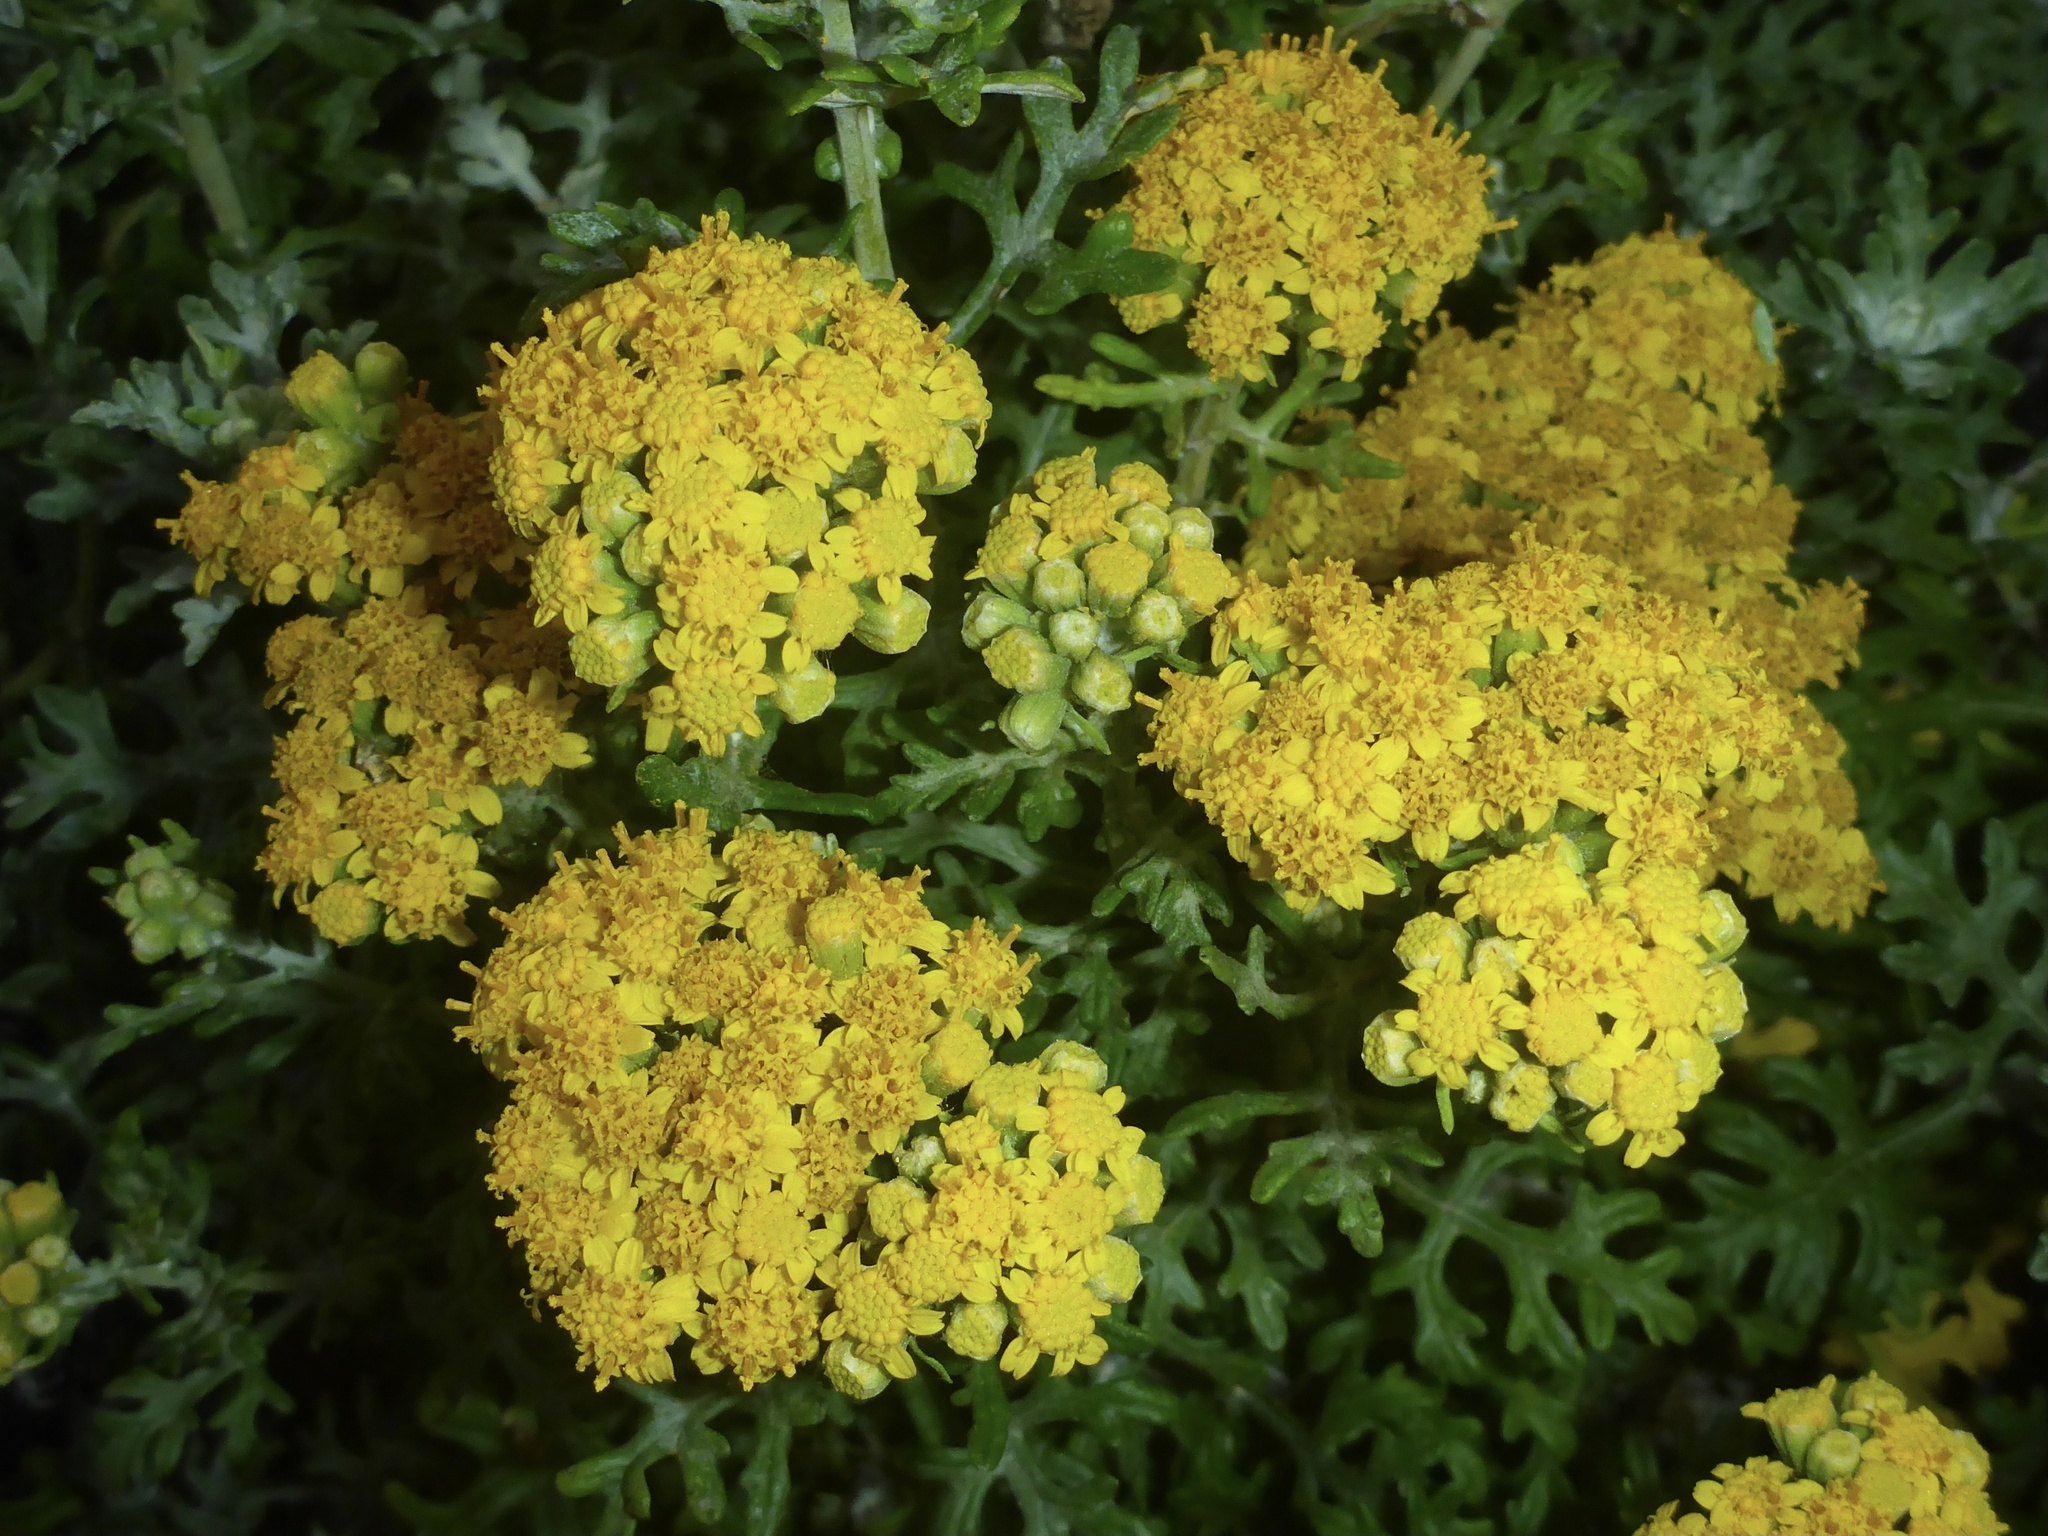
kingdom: Plantae
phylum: Tracheophyta
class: Magnoliopsida
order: Asterales
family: Asteraceae
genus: Eriophyllum
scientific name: Eriophyllum staechadifolium
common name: Lizardtail
